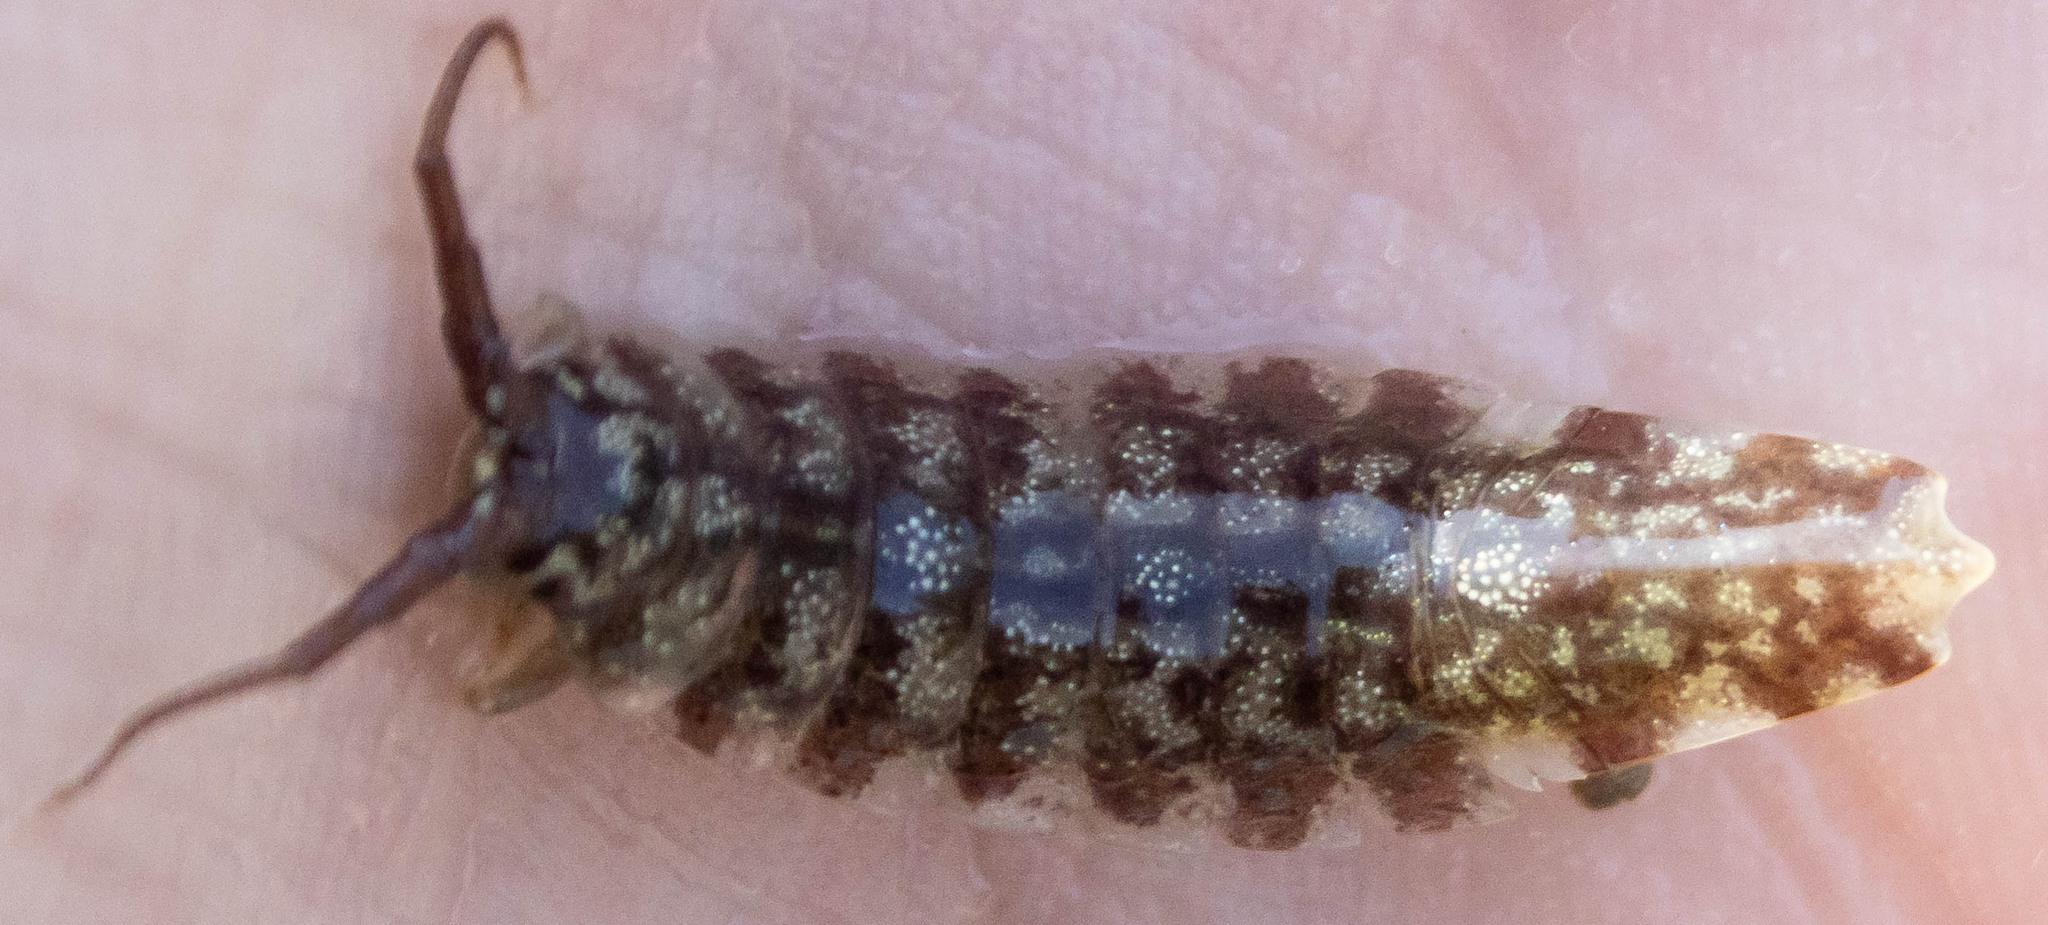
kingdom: Animalia
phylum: Arthropoda
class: Malacostraca
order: Isopoda
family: Idoteidae
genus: Idotea
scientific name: Idotea balthica
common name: Baltic isopod
